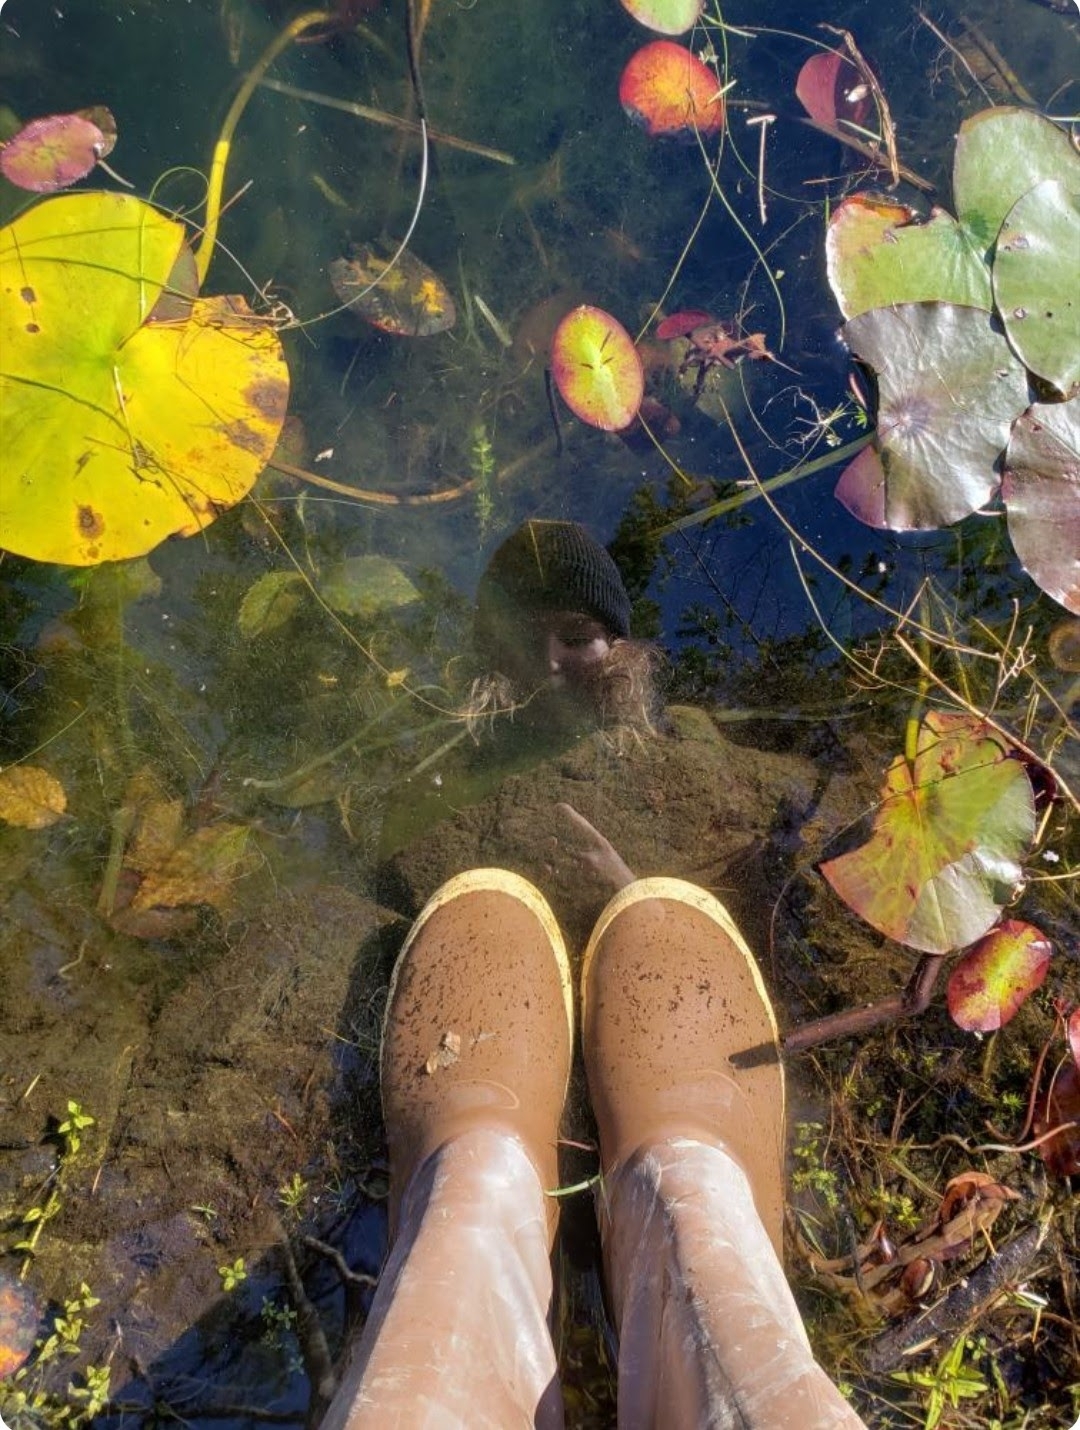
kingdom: Plantae
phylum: Tracheophyta
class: Magnoliopsida
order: Nymphaeales
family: Nymphaeaceae
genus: Nymphaea
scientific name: Nymphaea odorata
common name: Fragrant water-lily
